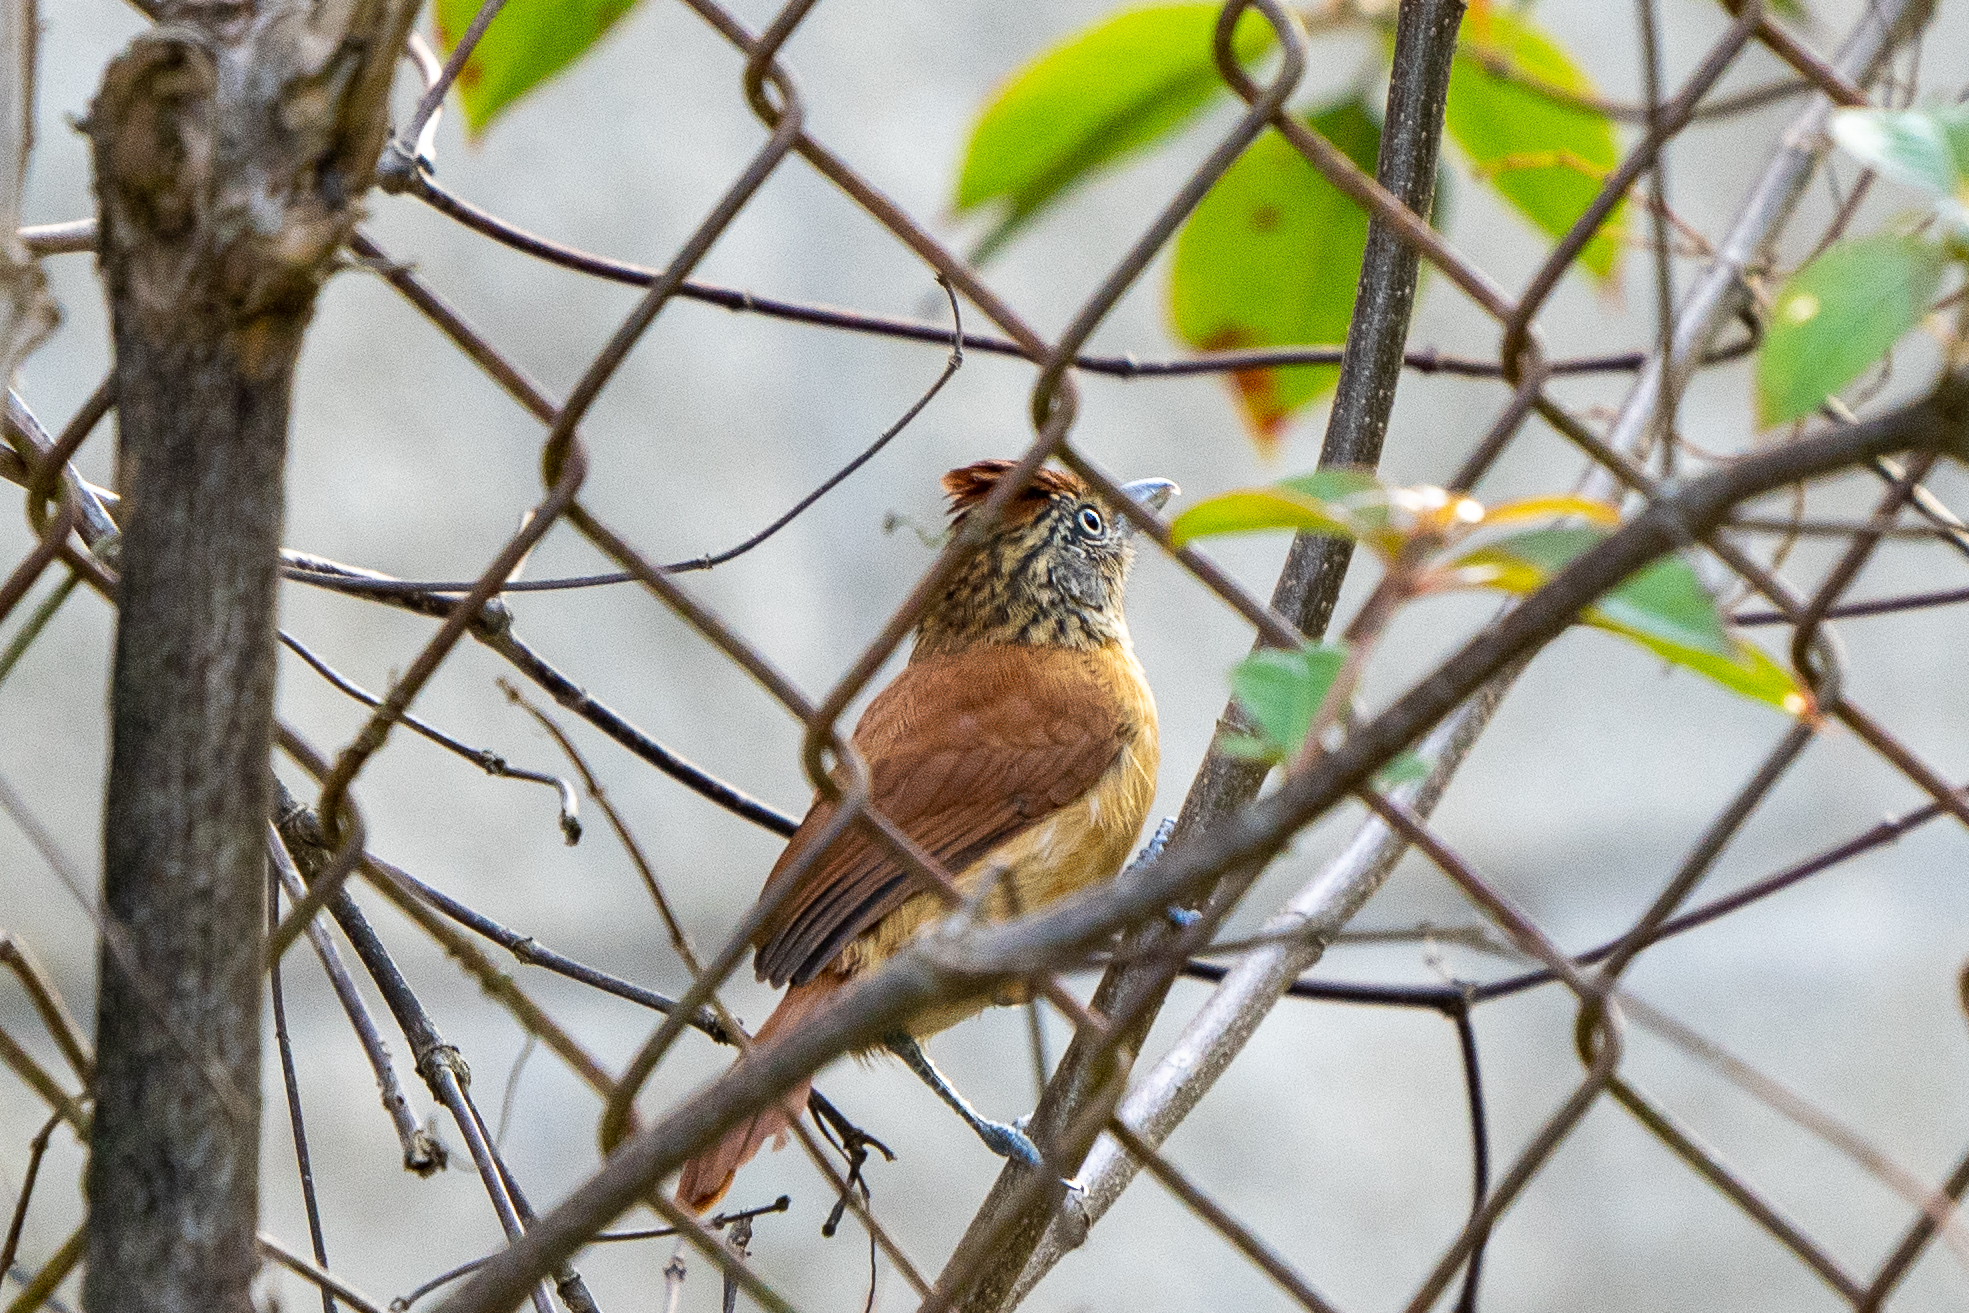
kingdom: Animalia
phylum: Chordata
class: Aves
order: Passeriformes
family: Thamnophilidae
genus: Thamnophilus
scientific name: Thamnophilus doliatus
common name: Barred antshrike
